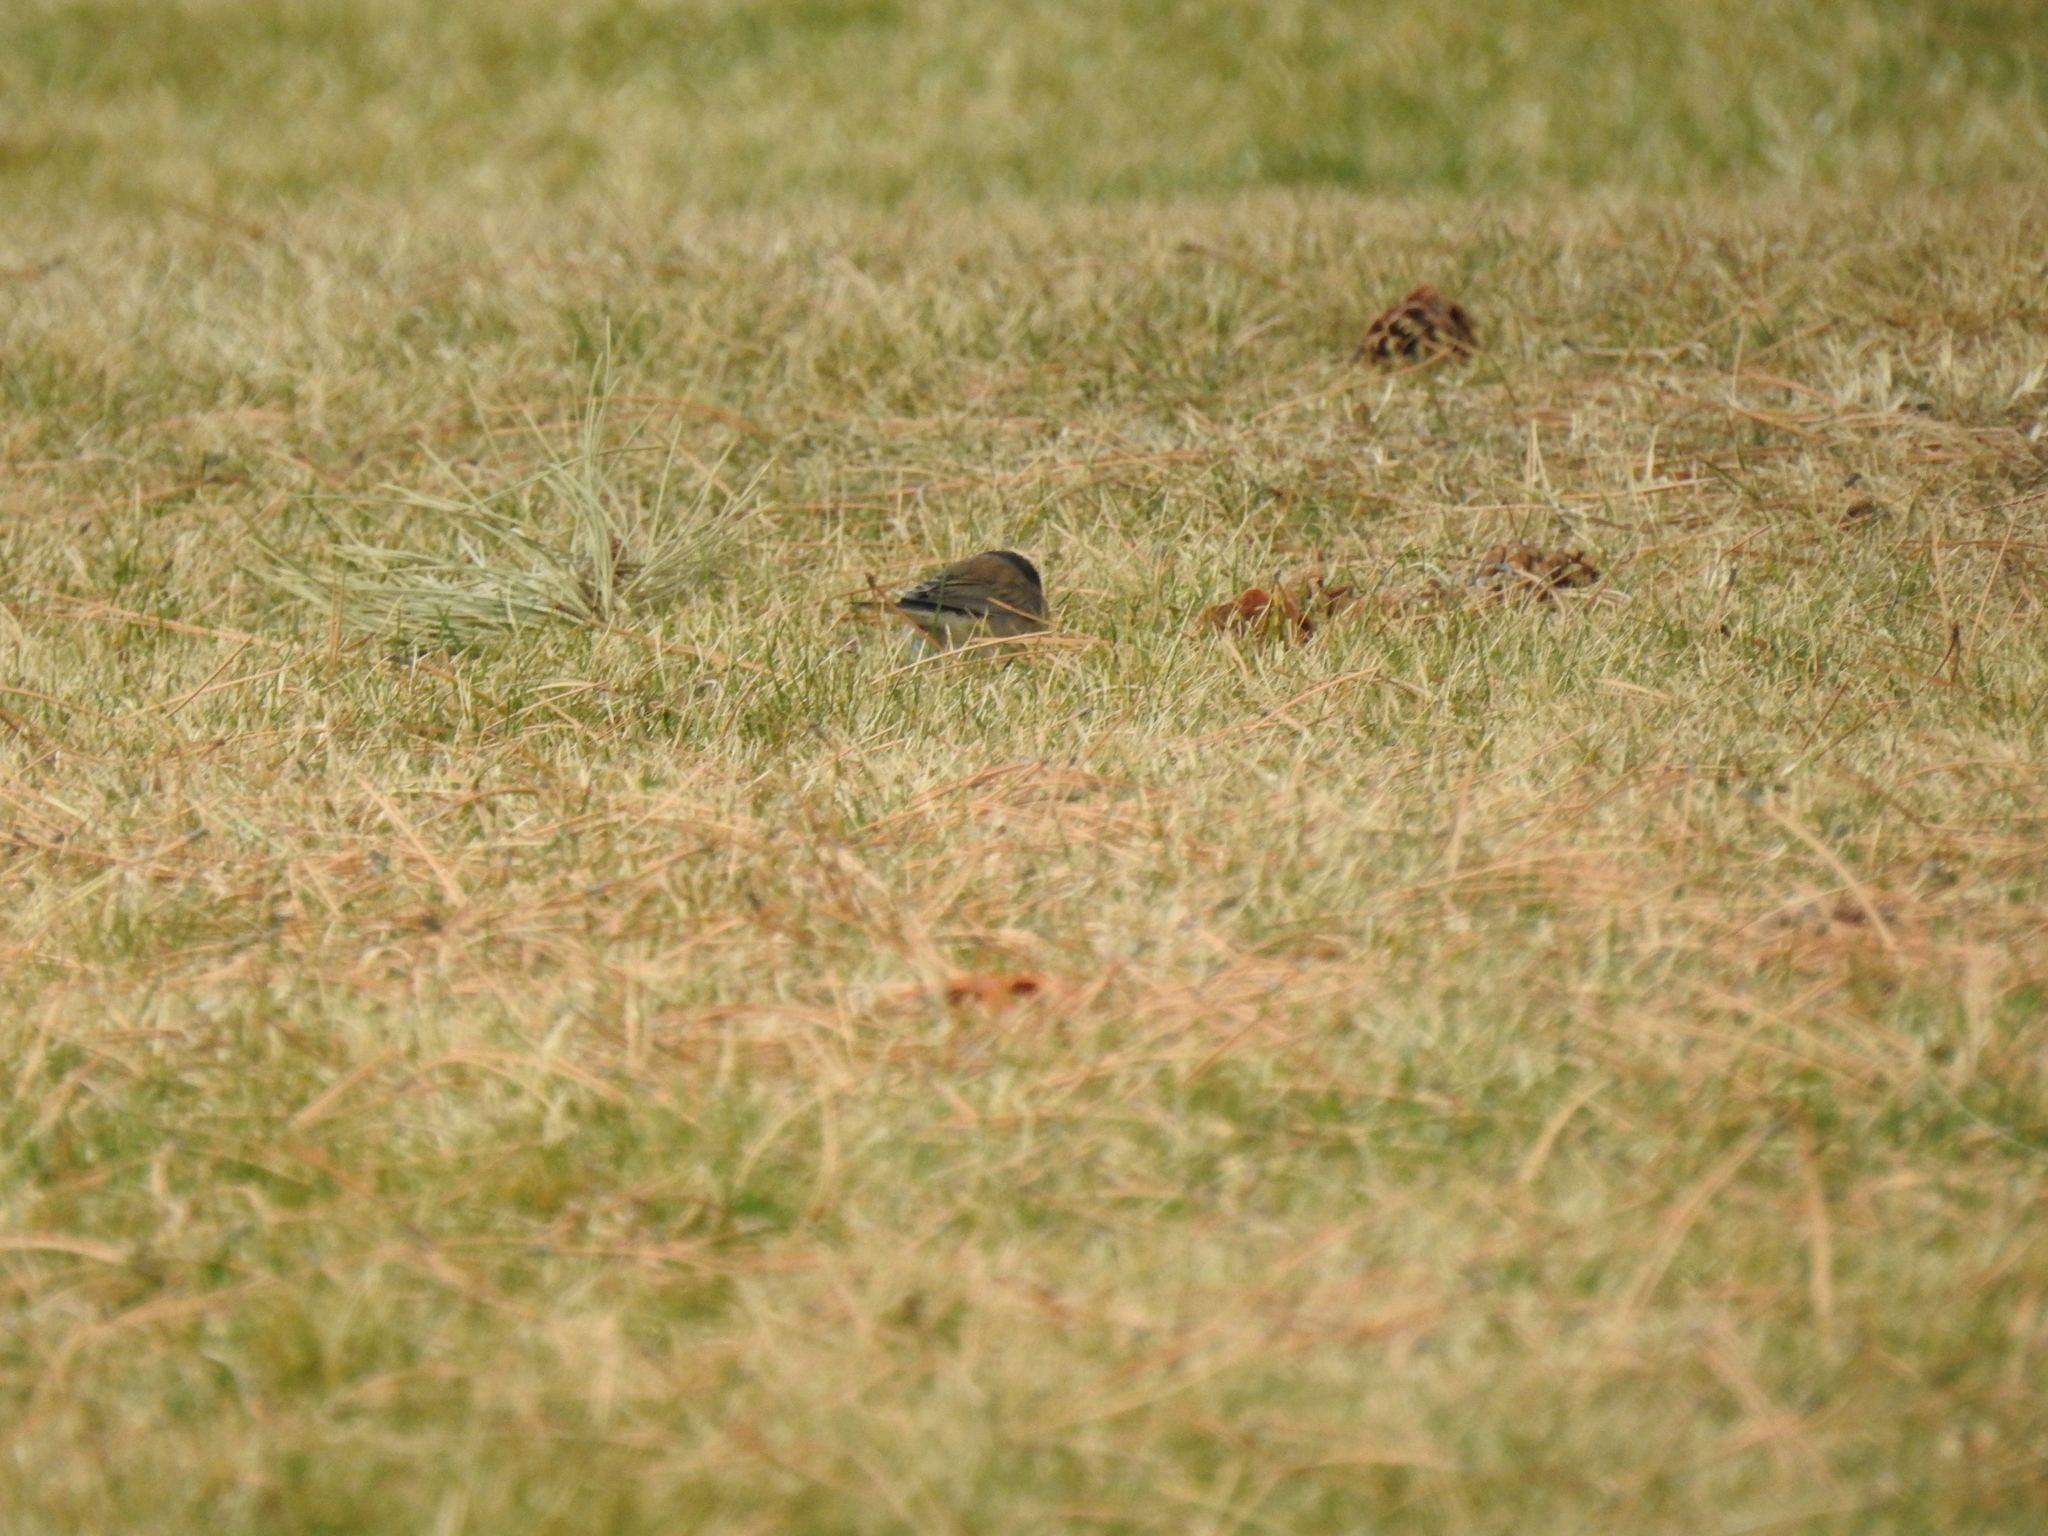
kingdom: Animalia
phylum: Chordata
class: Aves
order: Passeriformes
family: Passerellidae
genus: Junco
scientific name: Junco hyemalis
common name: Dark-eyed junco
